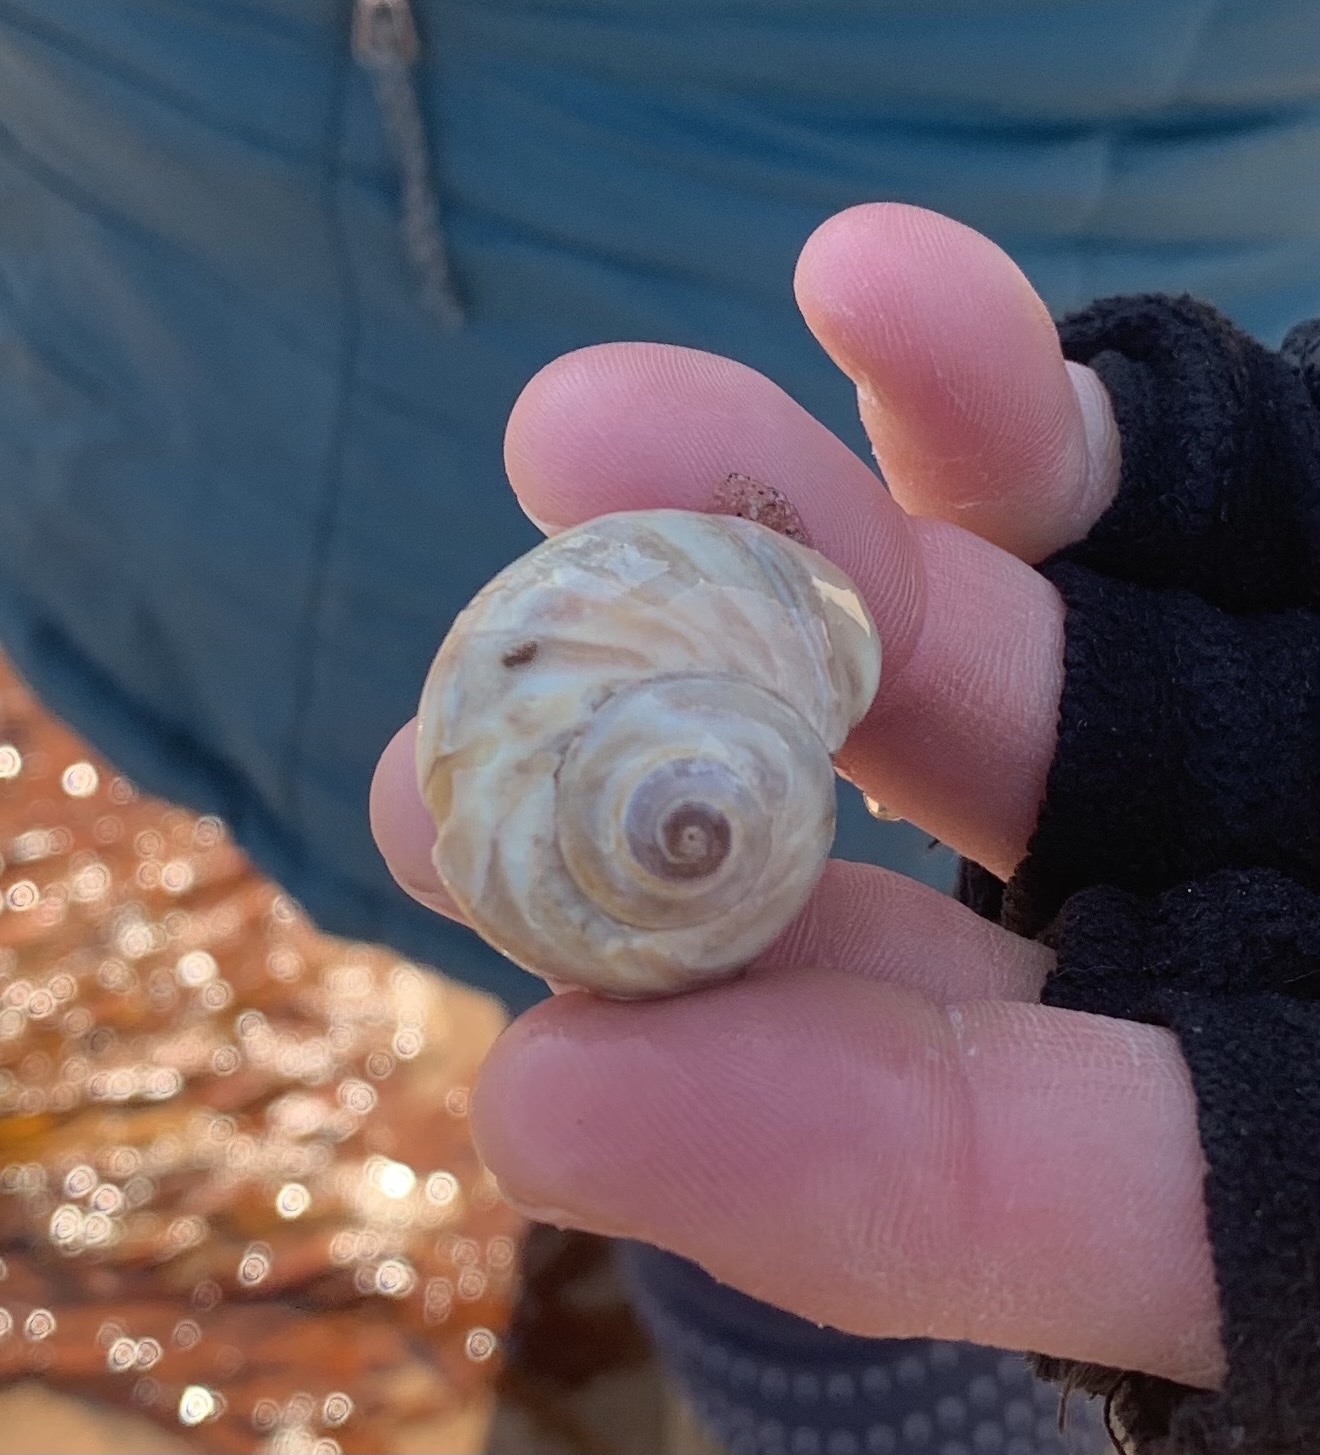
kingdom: Animalia
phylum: Mollusca
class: Gastropoda
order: Littorinimorpha
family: Naticidae
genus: Euspira
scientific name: Euspira heros
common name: Common northern moonsnail
